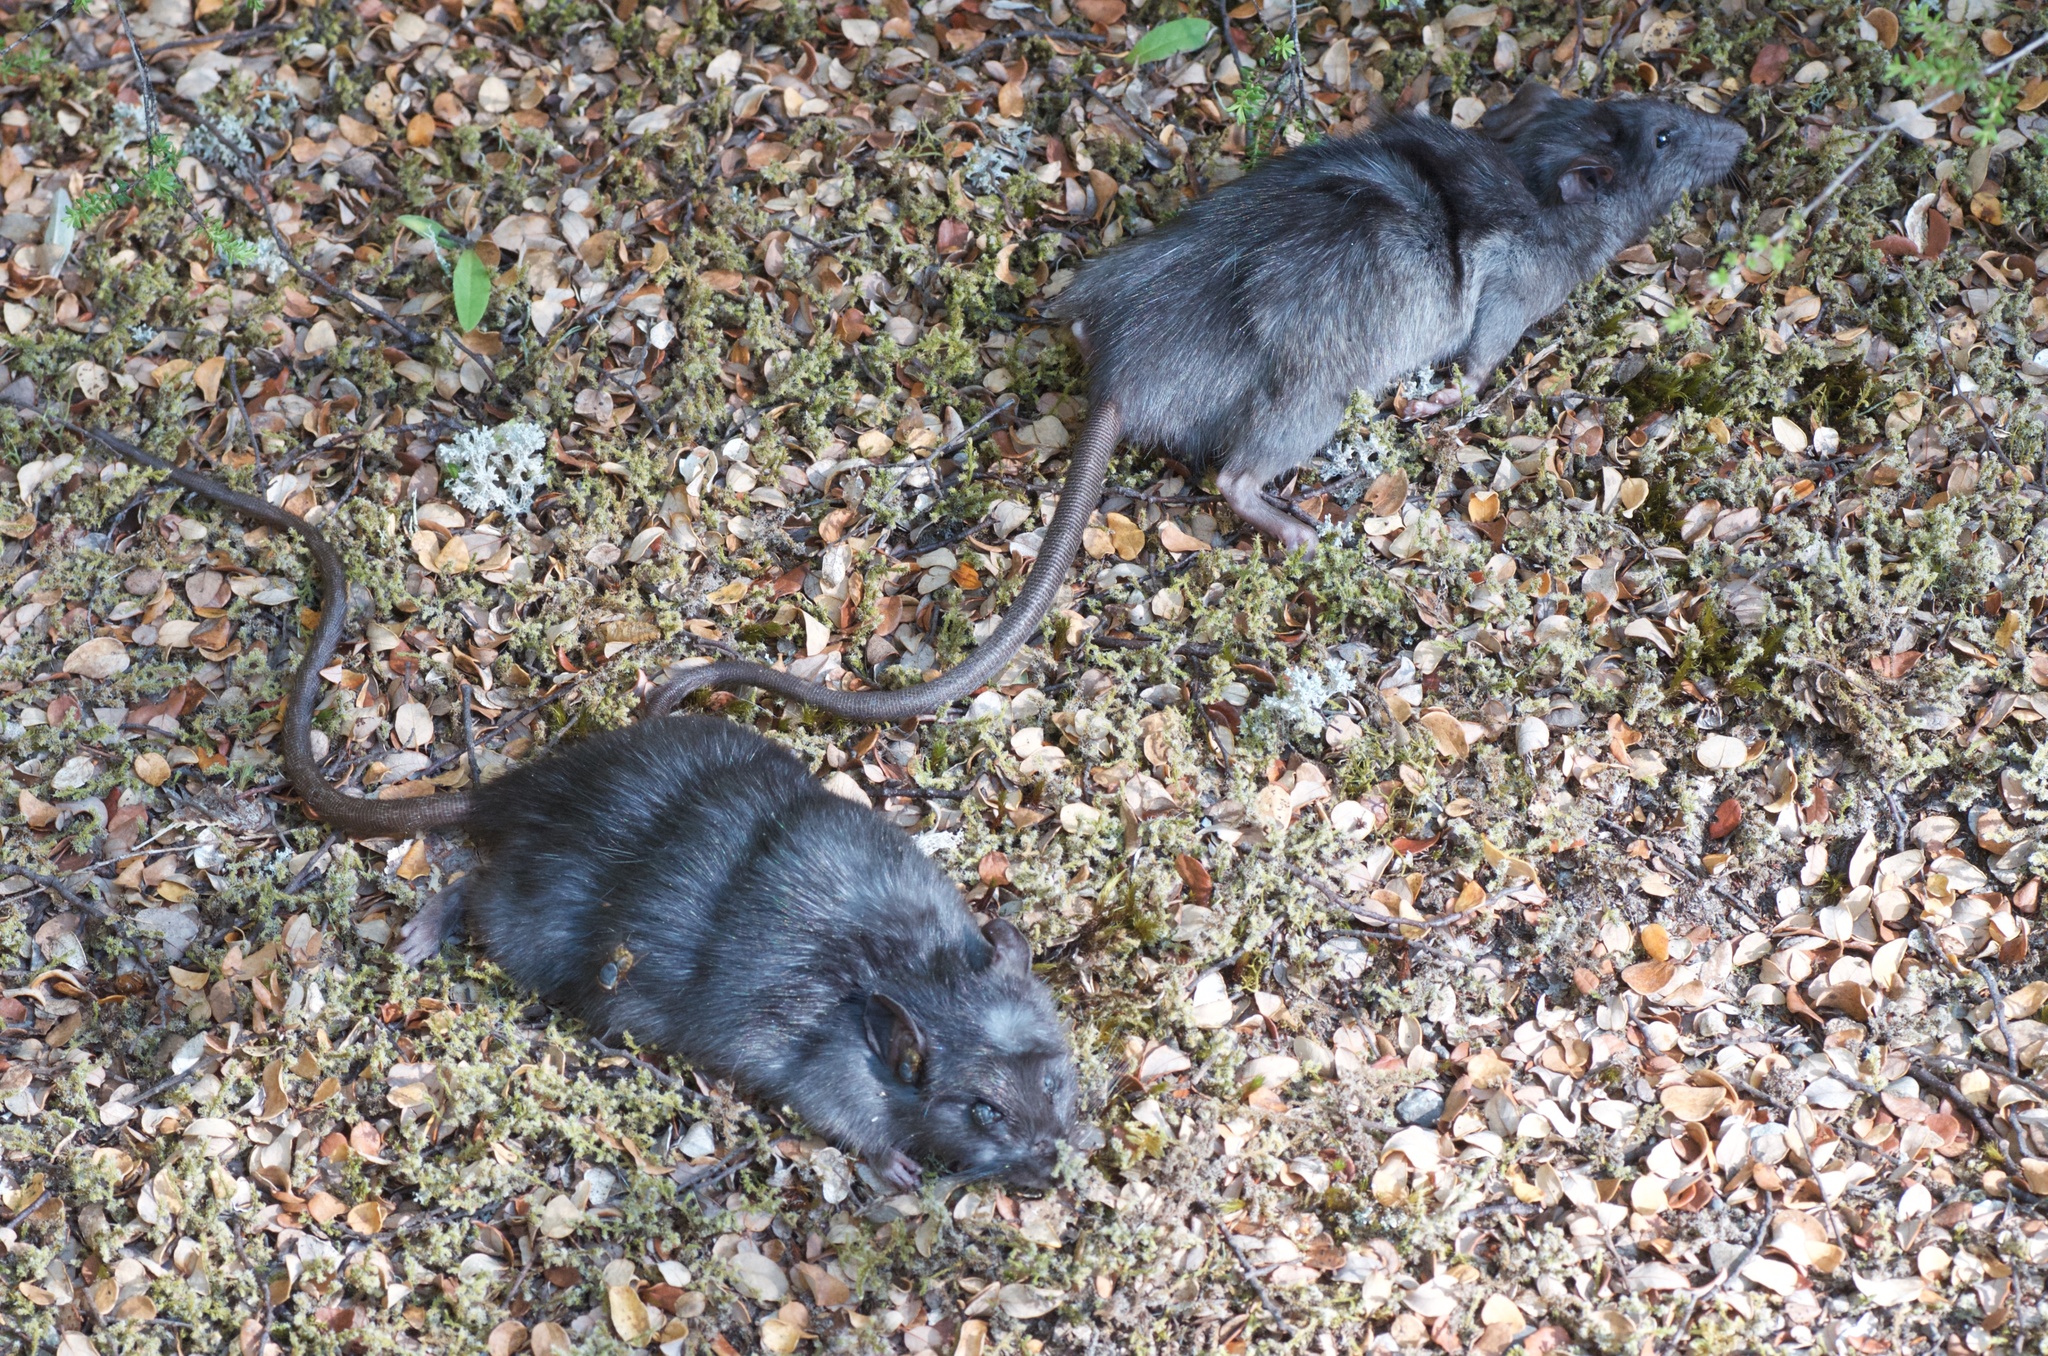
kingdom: Animalia
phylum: Chordata
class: Mammalia
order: Rodentia
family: Muridae
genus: Rattus
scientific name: Rattus rattus
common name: Black rat
